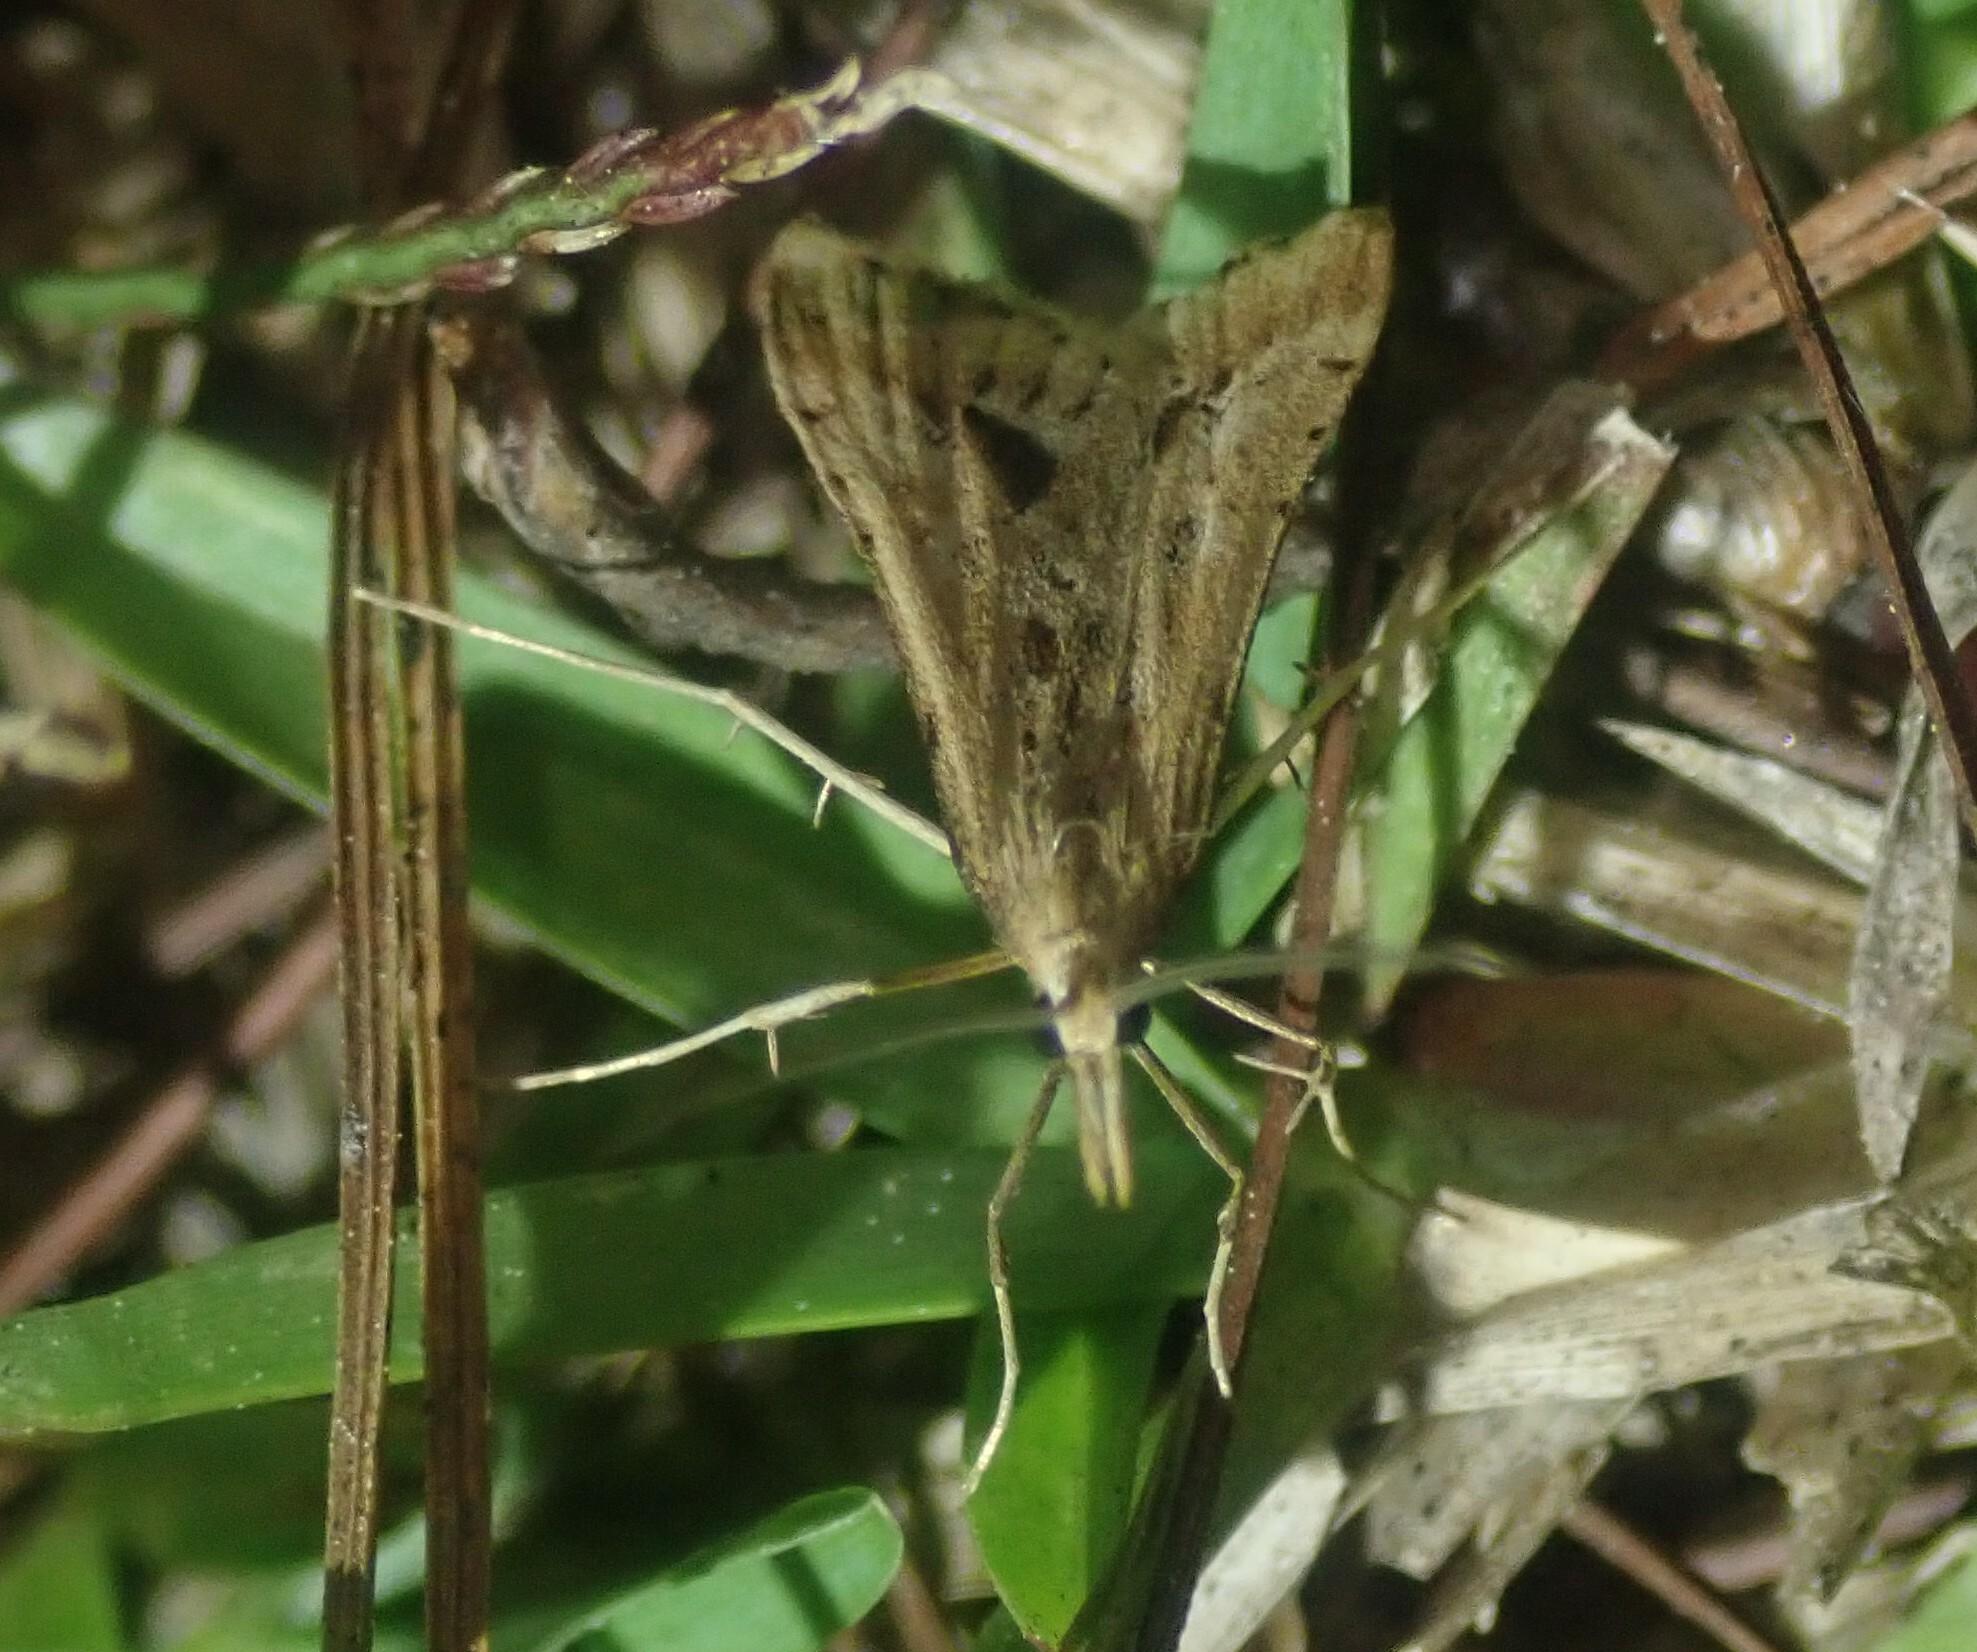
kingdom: Animalia
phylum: Arthropoda
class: Insecta
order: Lepidoptera
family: Crambidae
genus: Diasemia
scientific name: Diasemia monostigma
